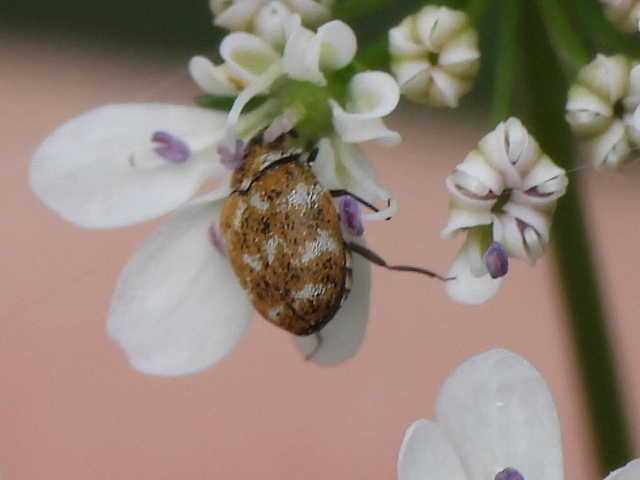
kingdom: Animalia
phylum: Arthropoda
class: Insecta
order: Coleoptera
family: Dermestidae
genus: Anthrenus
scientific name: Anthrenus verbasci
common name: Varied carpet beetle
